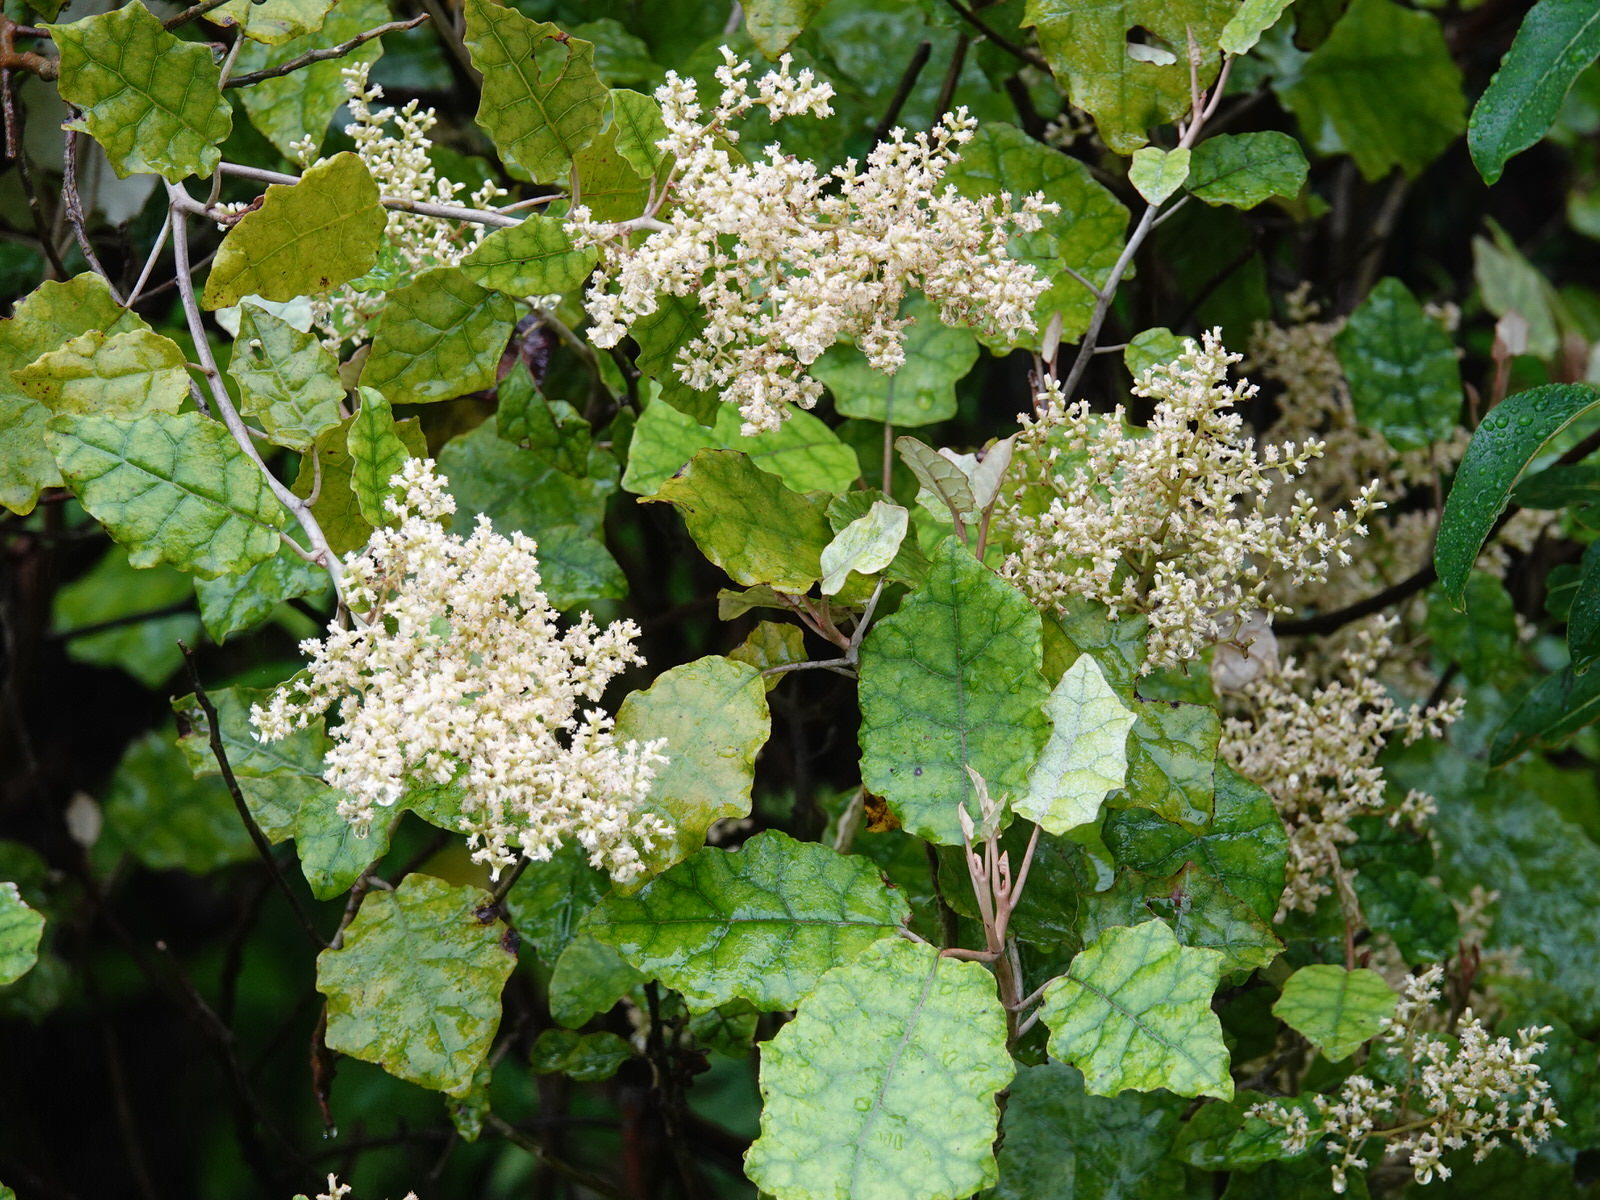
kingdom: Plantae
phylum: Tracheophyta
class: Magnoliopsida
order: Asterales
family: Asteraceae
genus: Brachyglottis
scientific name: Brachyglottis repanda
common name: Hedge ragwort
